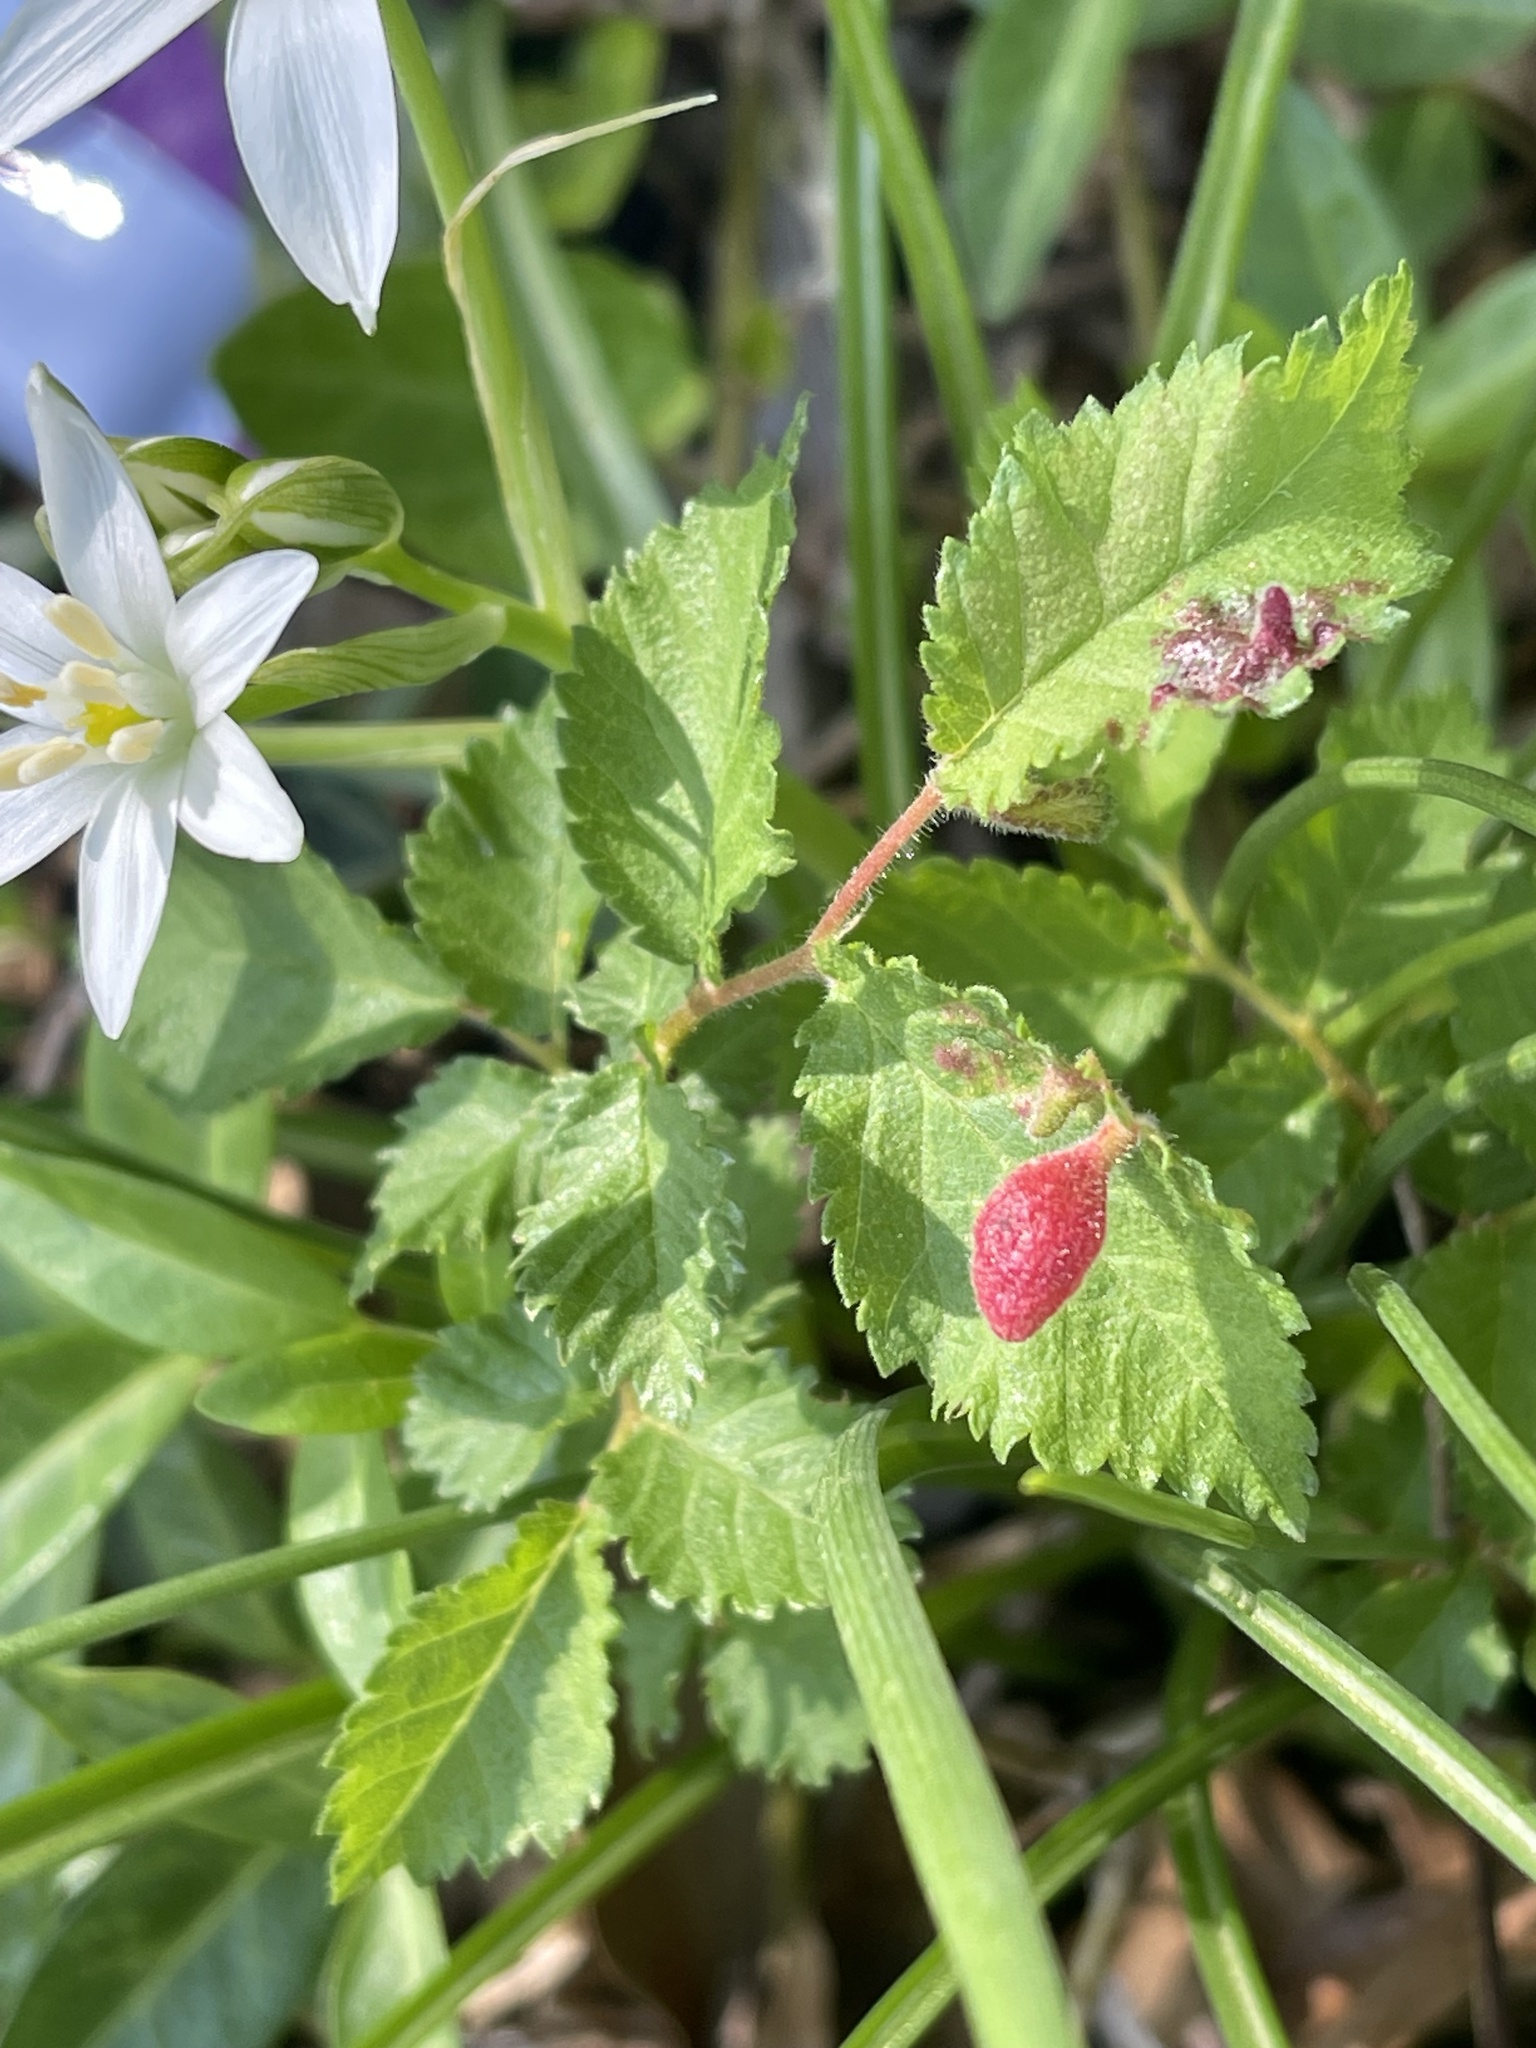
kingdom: Animalia
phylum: Arthropoda
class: Insecta
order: Hemiptera
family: Aphididae
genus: Tetraneura
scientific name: Tetraneura nigriabdominalis
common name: Aphid
